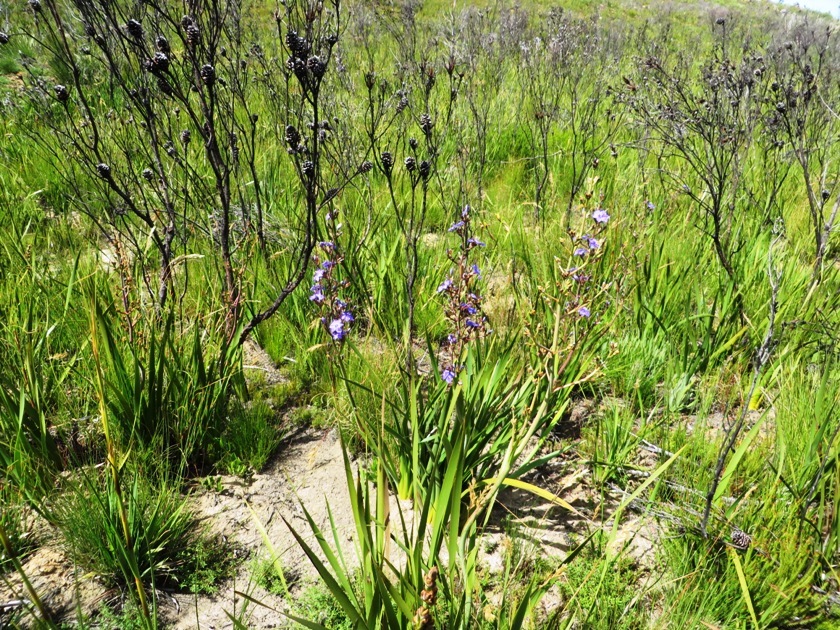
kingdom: Plantae
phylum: Tracheophyta
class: Liliopsida
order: Asparagales
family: Iridaceae
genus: Aristea
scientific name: Aristea bakeri
